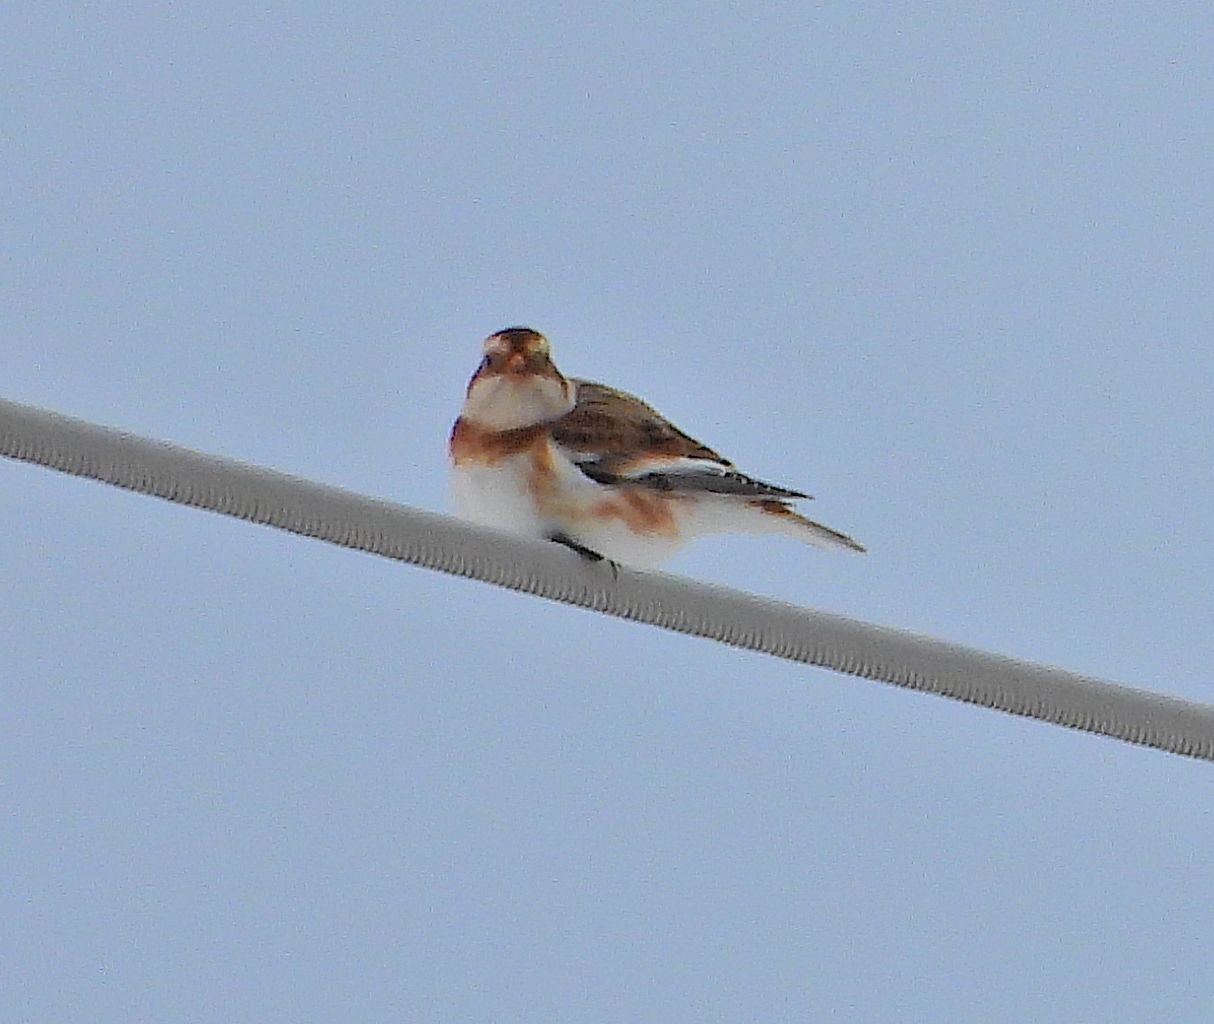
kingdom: Animalia
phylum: Chordata
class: Aves
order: Passeriformes
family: Calcariidae
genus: Plectrophenax
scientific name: Plectrophenax nivalis
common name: Snow bunting
